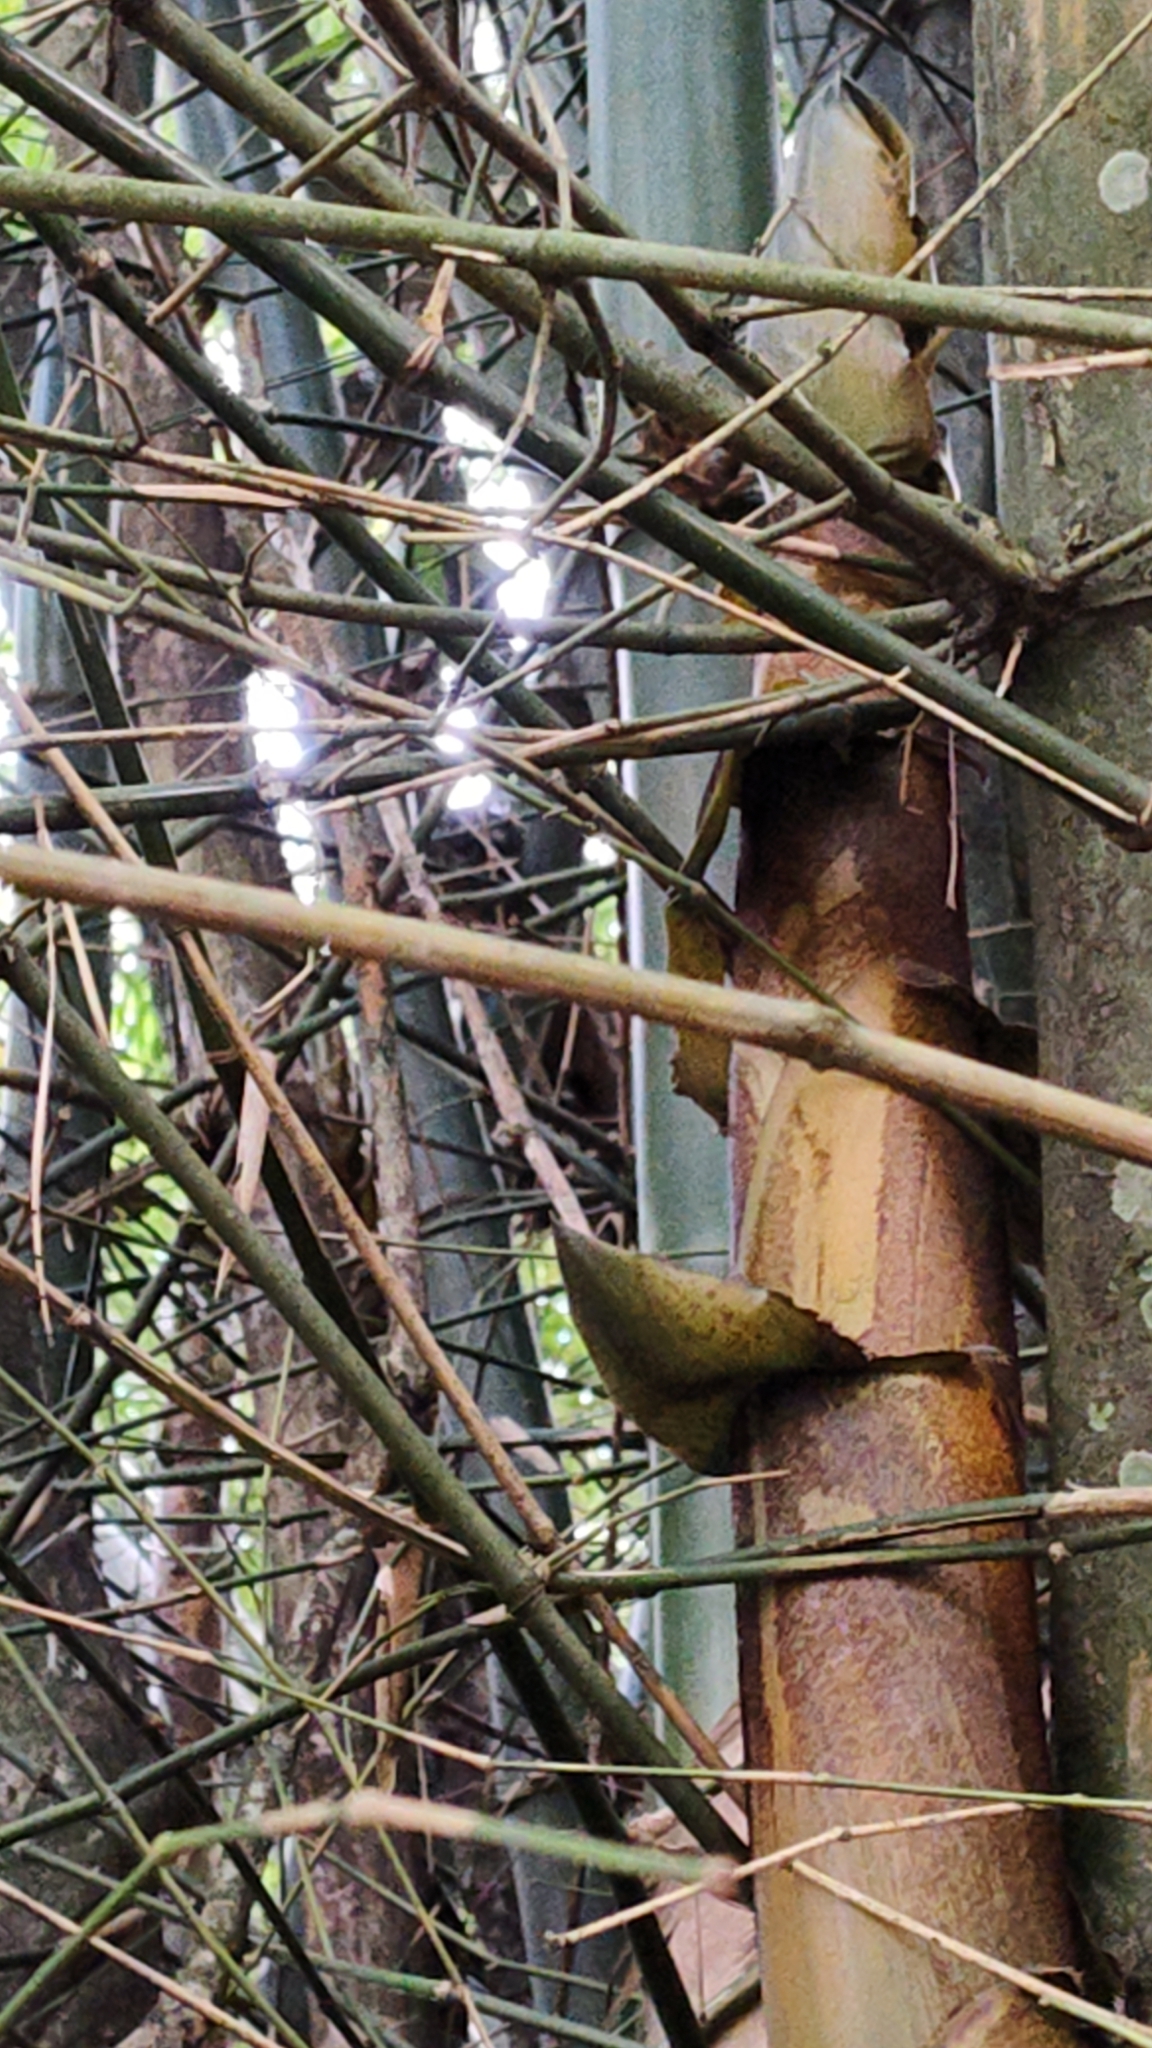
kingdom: Animalia
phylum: Chordata
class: Mammalia
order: Primates
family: Aotidae
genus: Aotus
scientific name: Aotus brumbacki
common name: Brumback's night monkey
